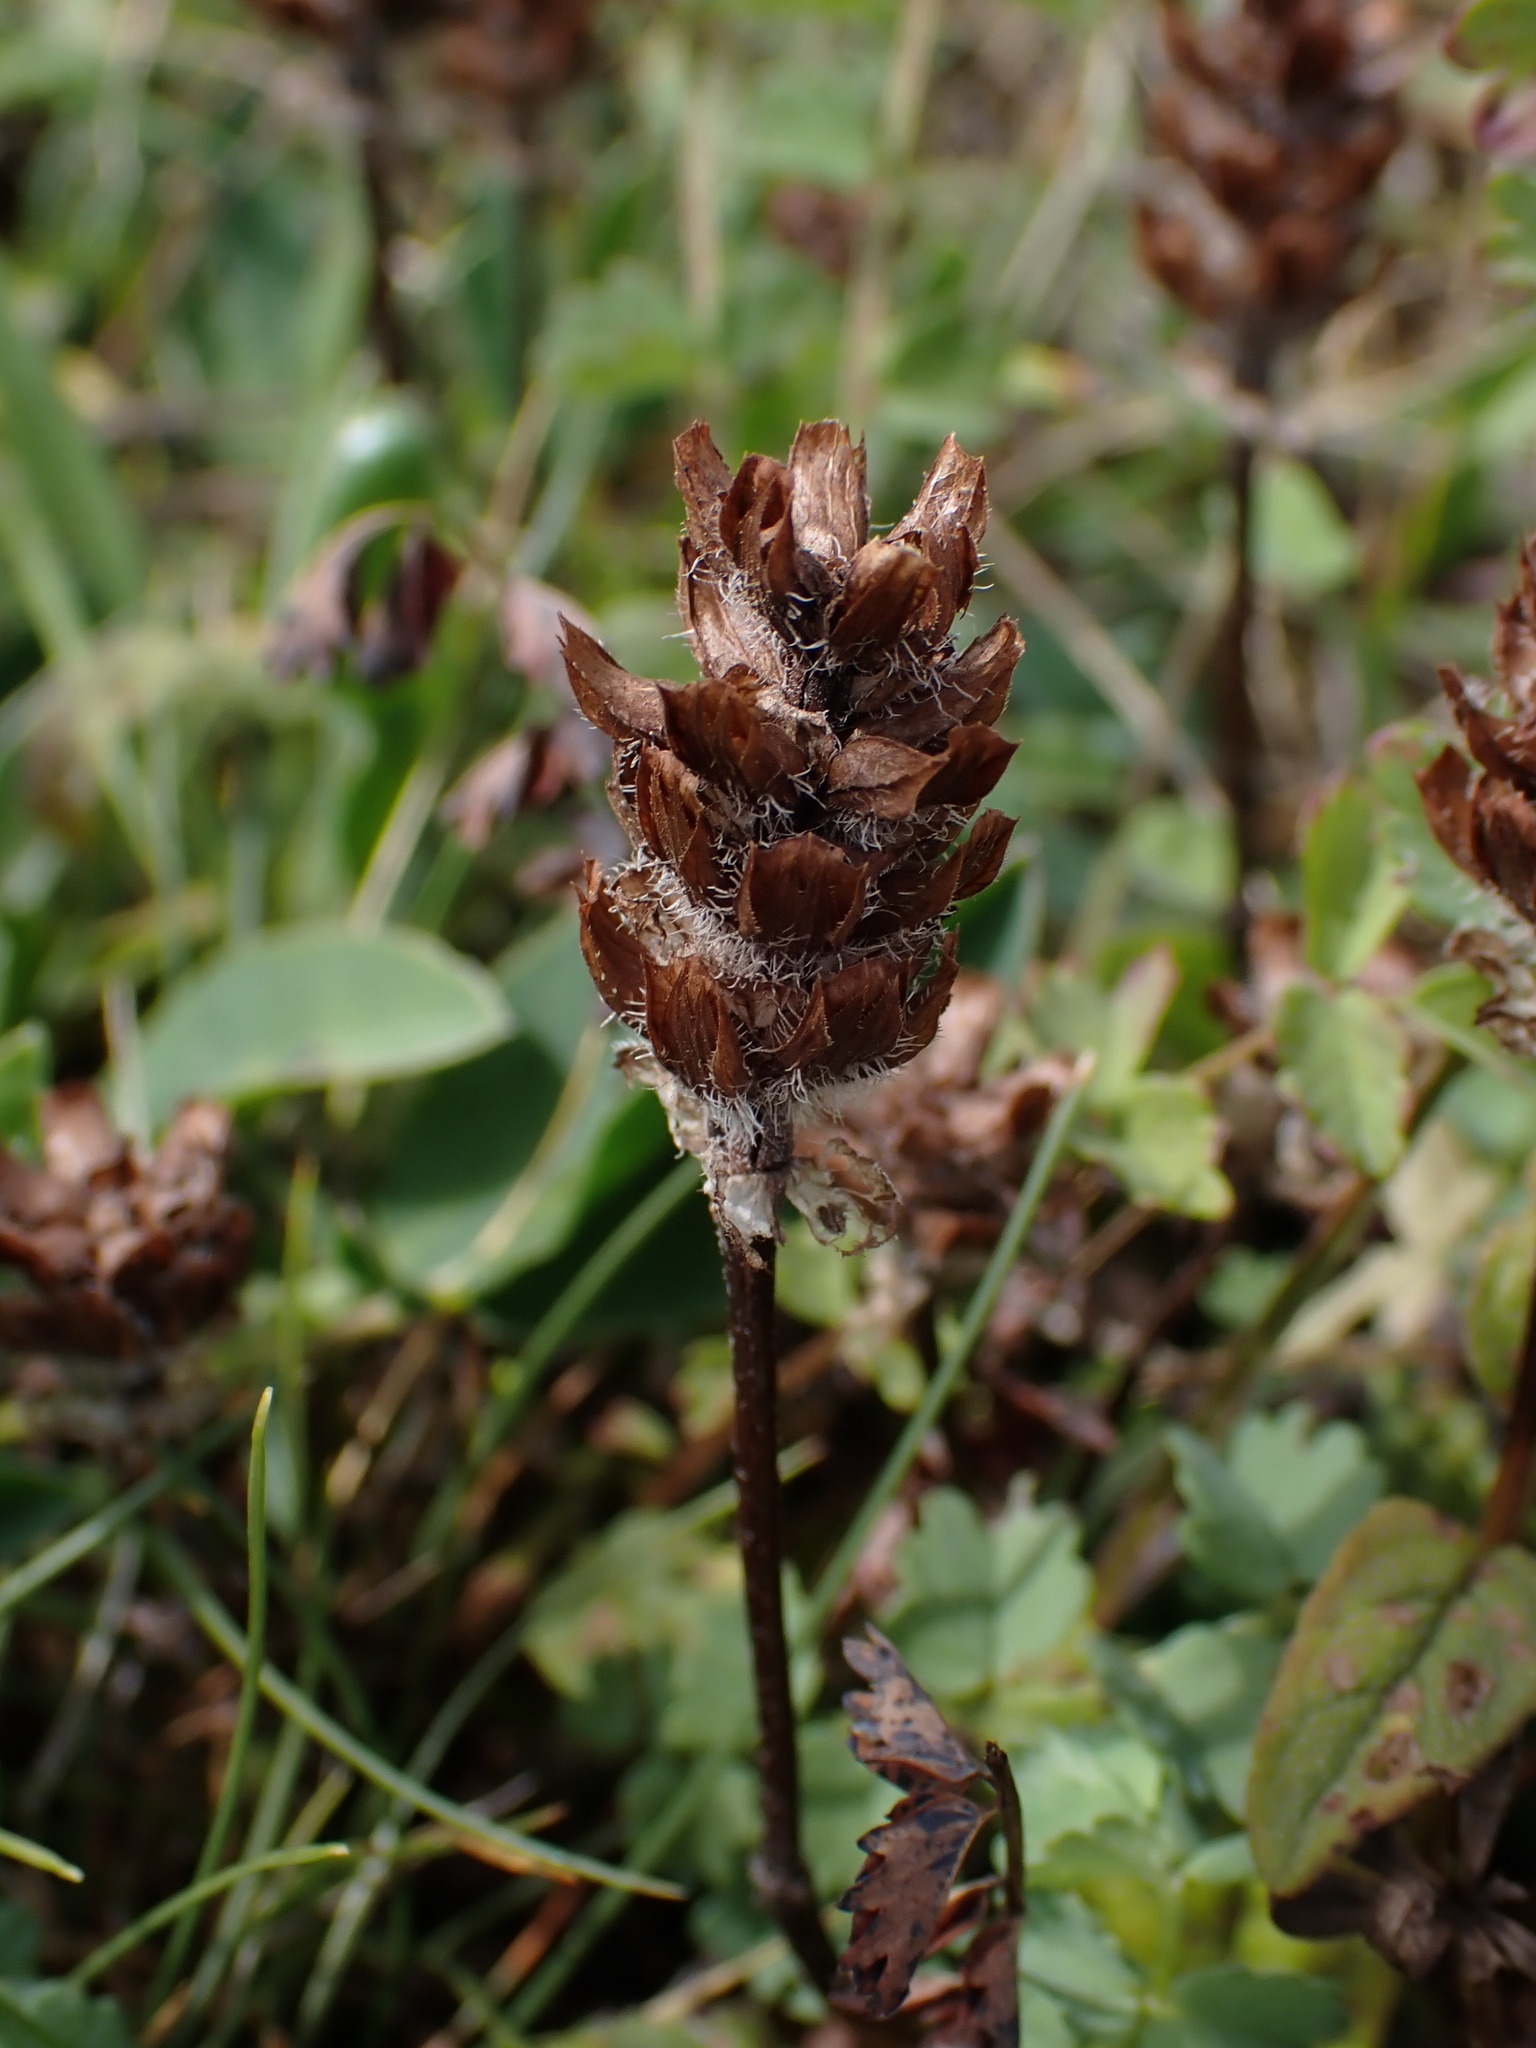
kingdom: Plantae
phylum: Tracheophyta
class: Magnoliopsida
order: Lamiales
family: Lamiaceae
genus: Prunella
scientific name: Prunella vulgaris
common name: Heal-all
